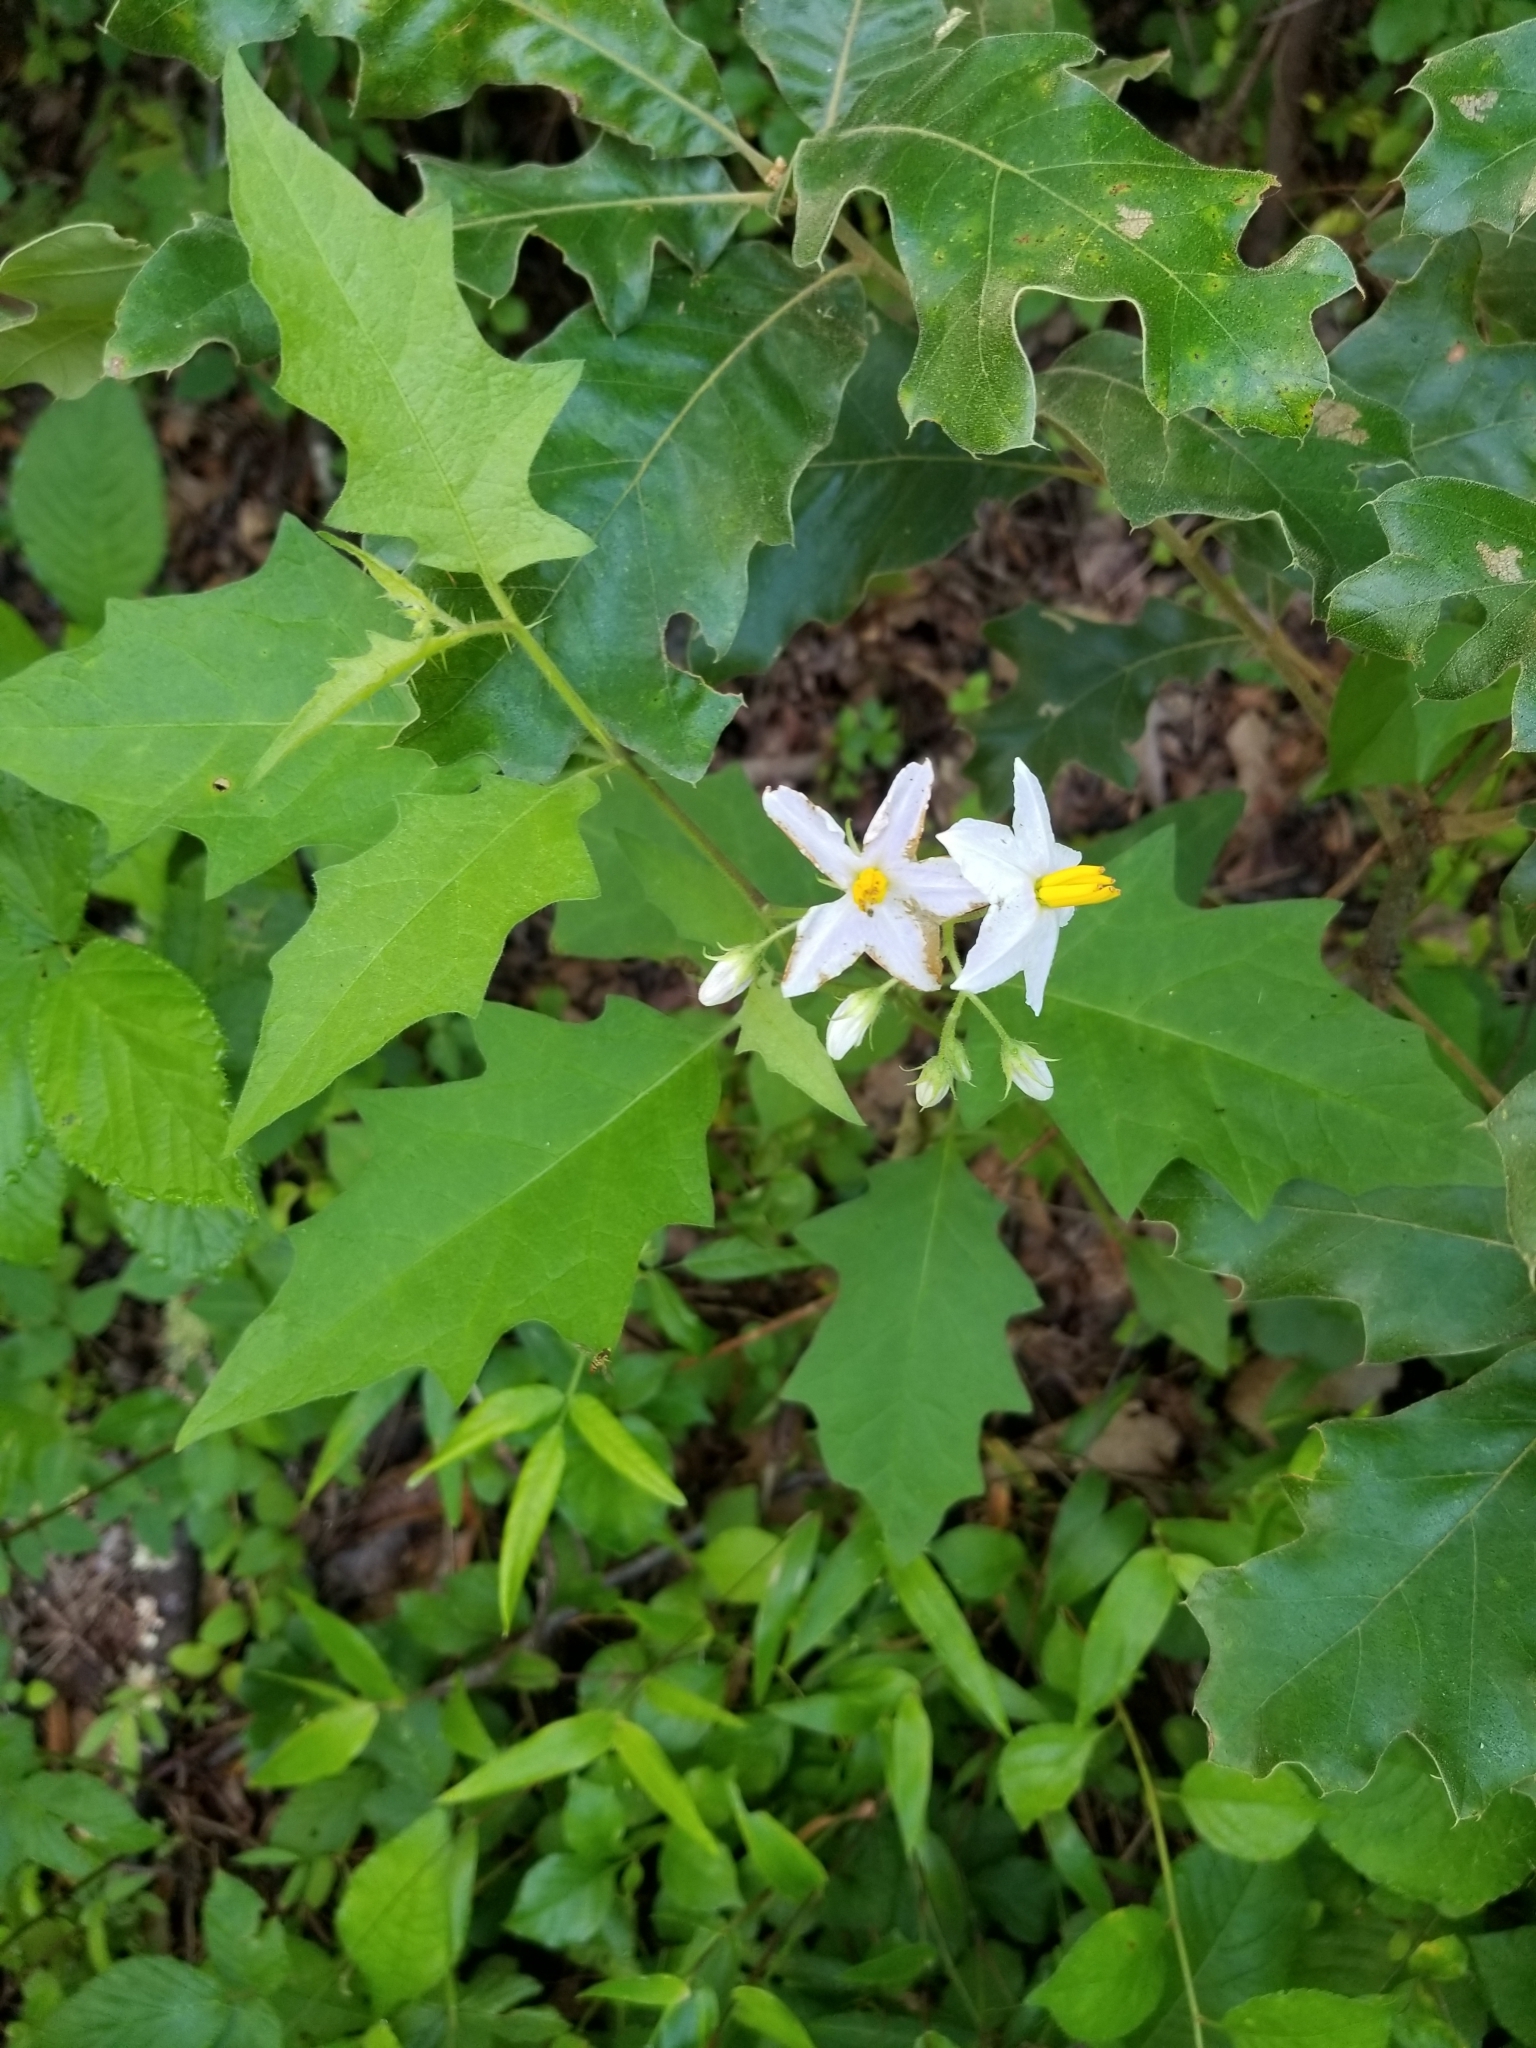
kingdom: Plantae
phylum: Tracheophyta
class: Magnoliopsida
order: Solanales
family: Solanaceae
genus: Solanum
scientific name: Solanum carolinense
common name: Horse-nettle
